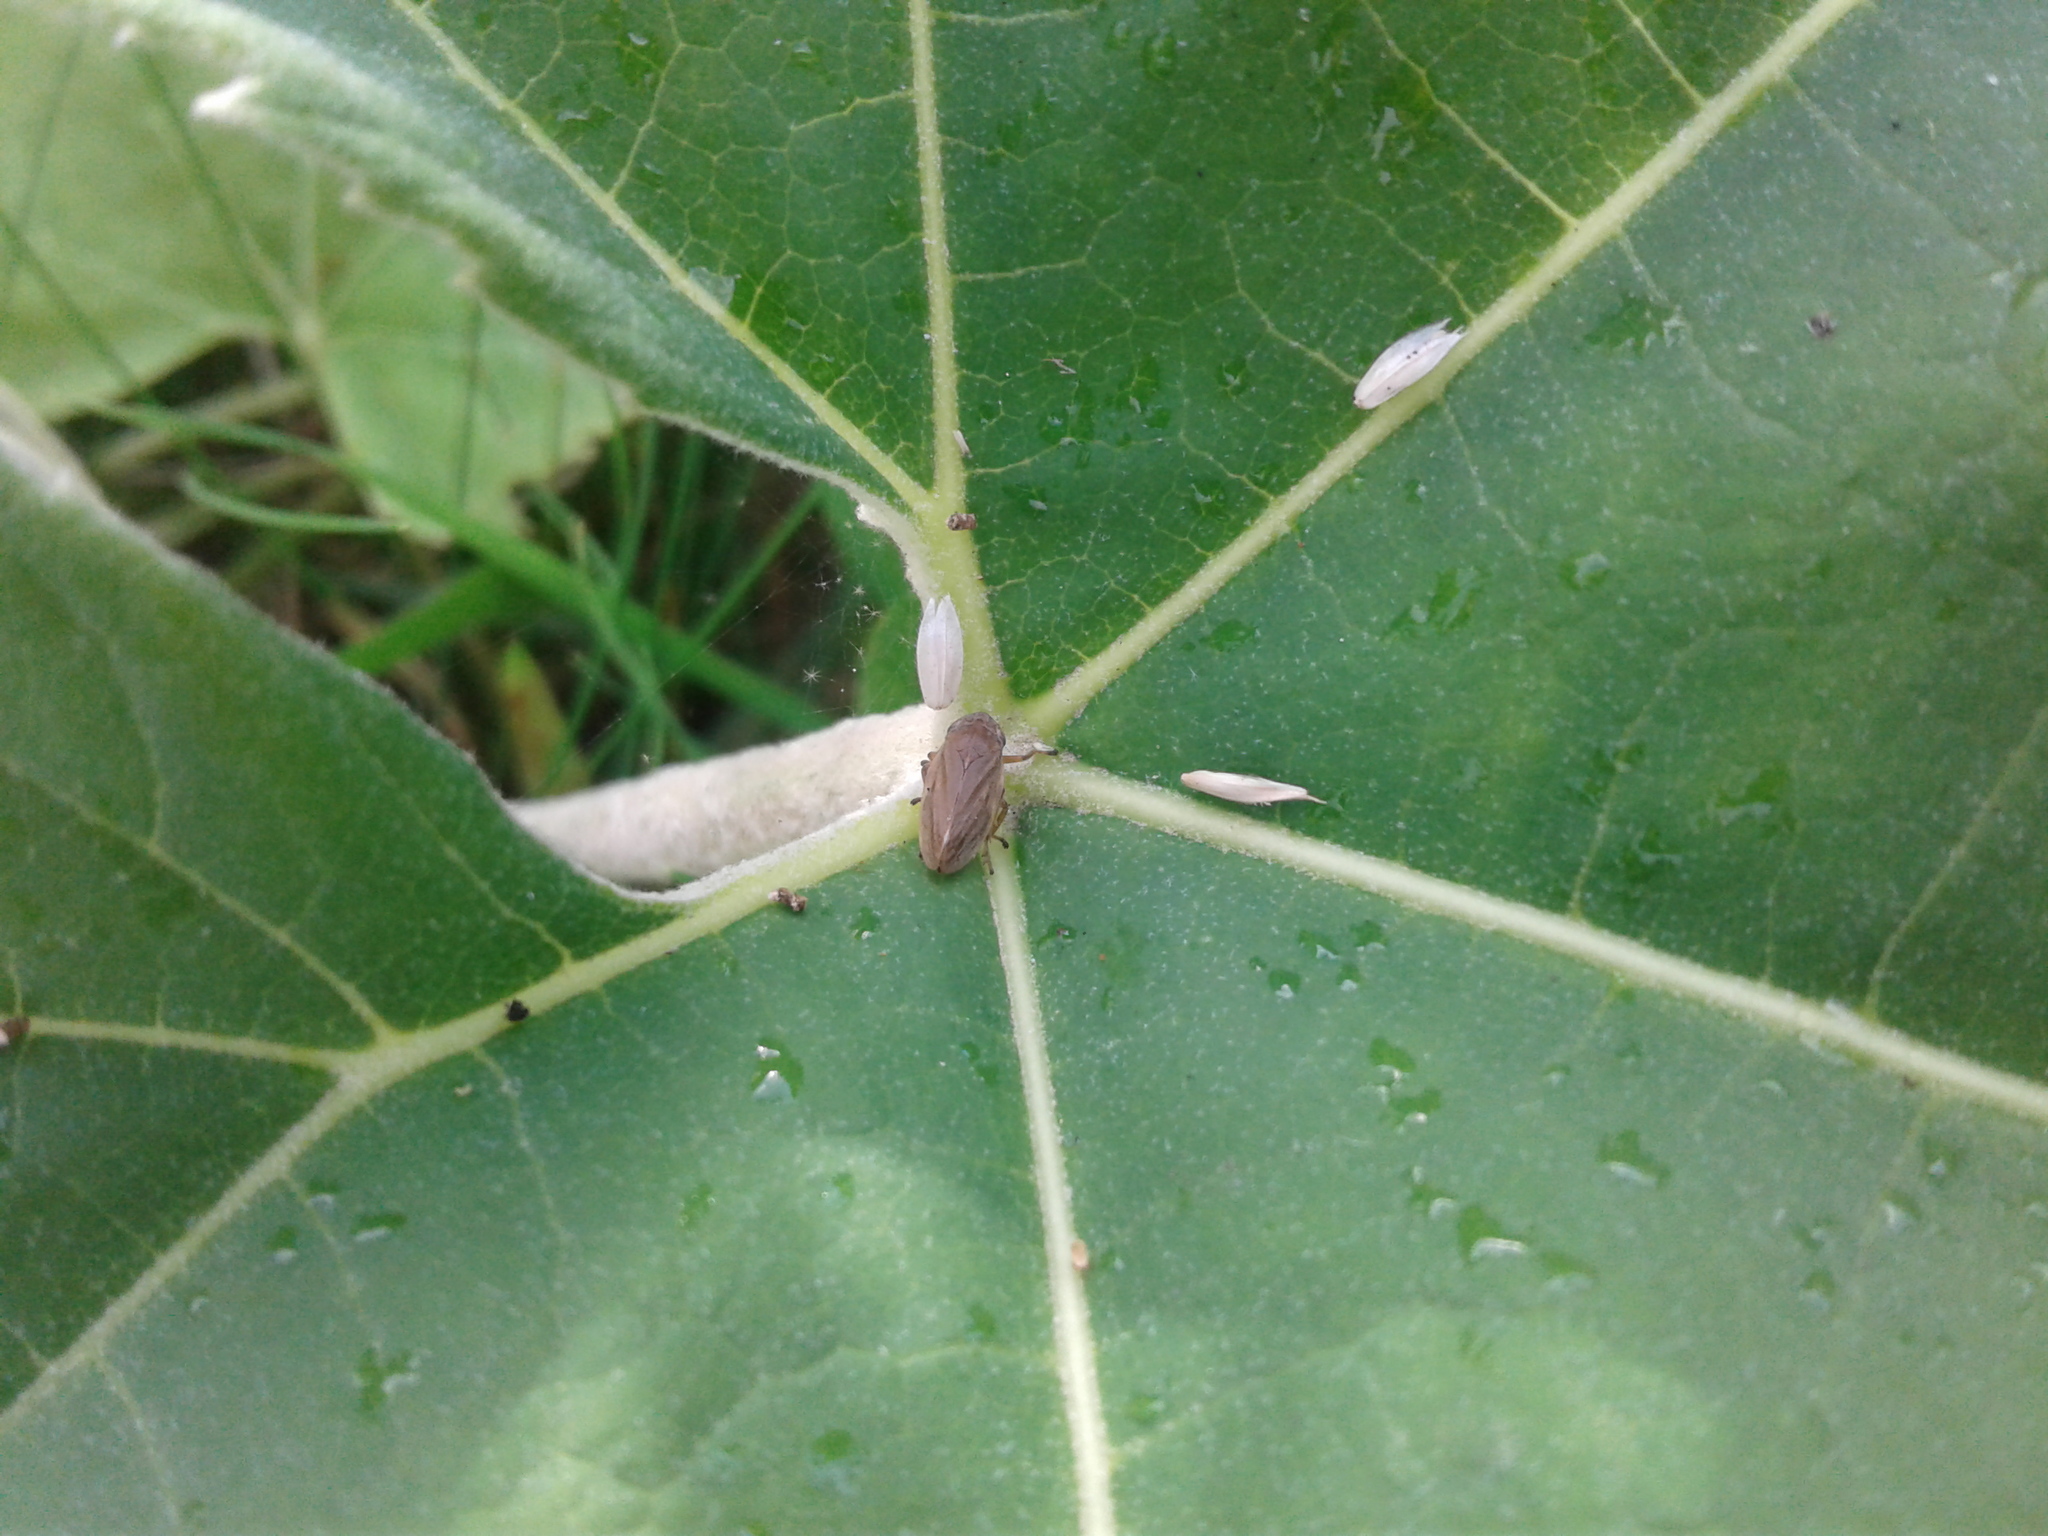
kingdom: Animalia
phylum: Arthropoda
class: Insecta
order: Hemiptera
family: Aphrophoridae
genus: Philaenus
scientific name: Philaenus spumarius
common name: Meadow spittlebug
